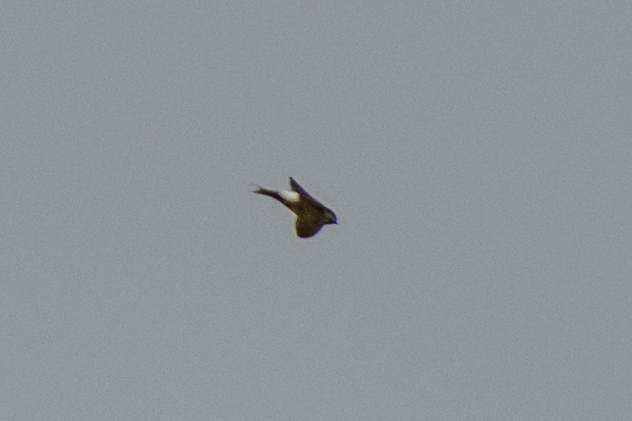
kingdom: Animalia
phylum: Chordata
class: Aves
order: Passeriformes
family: Hirundinidae
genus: Delichon
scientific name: Delichon urbicum
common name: Common house martin
